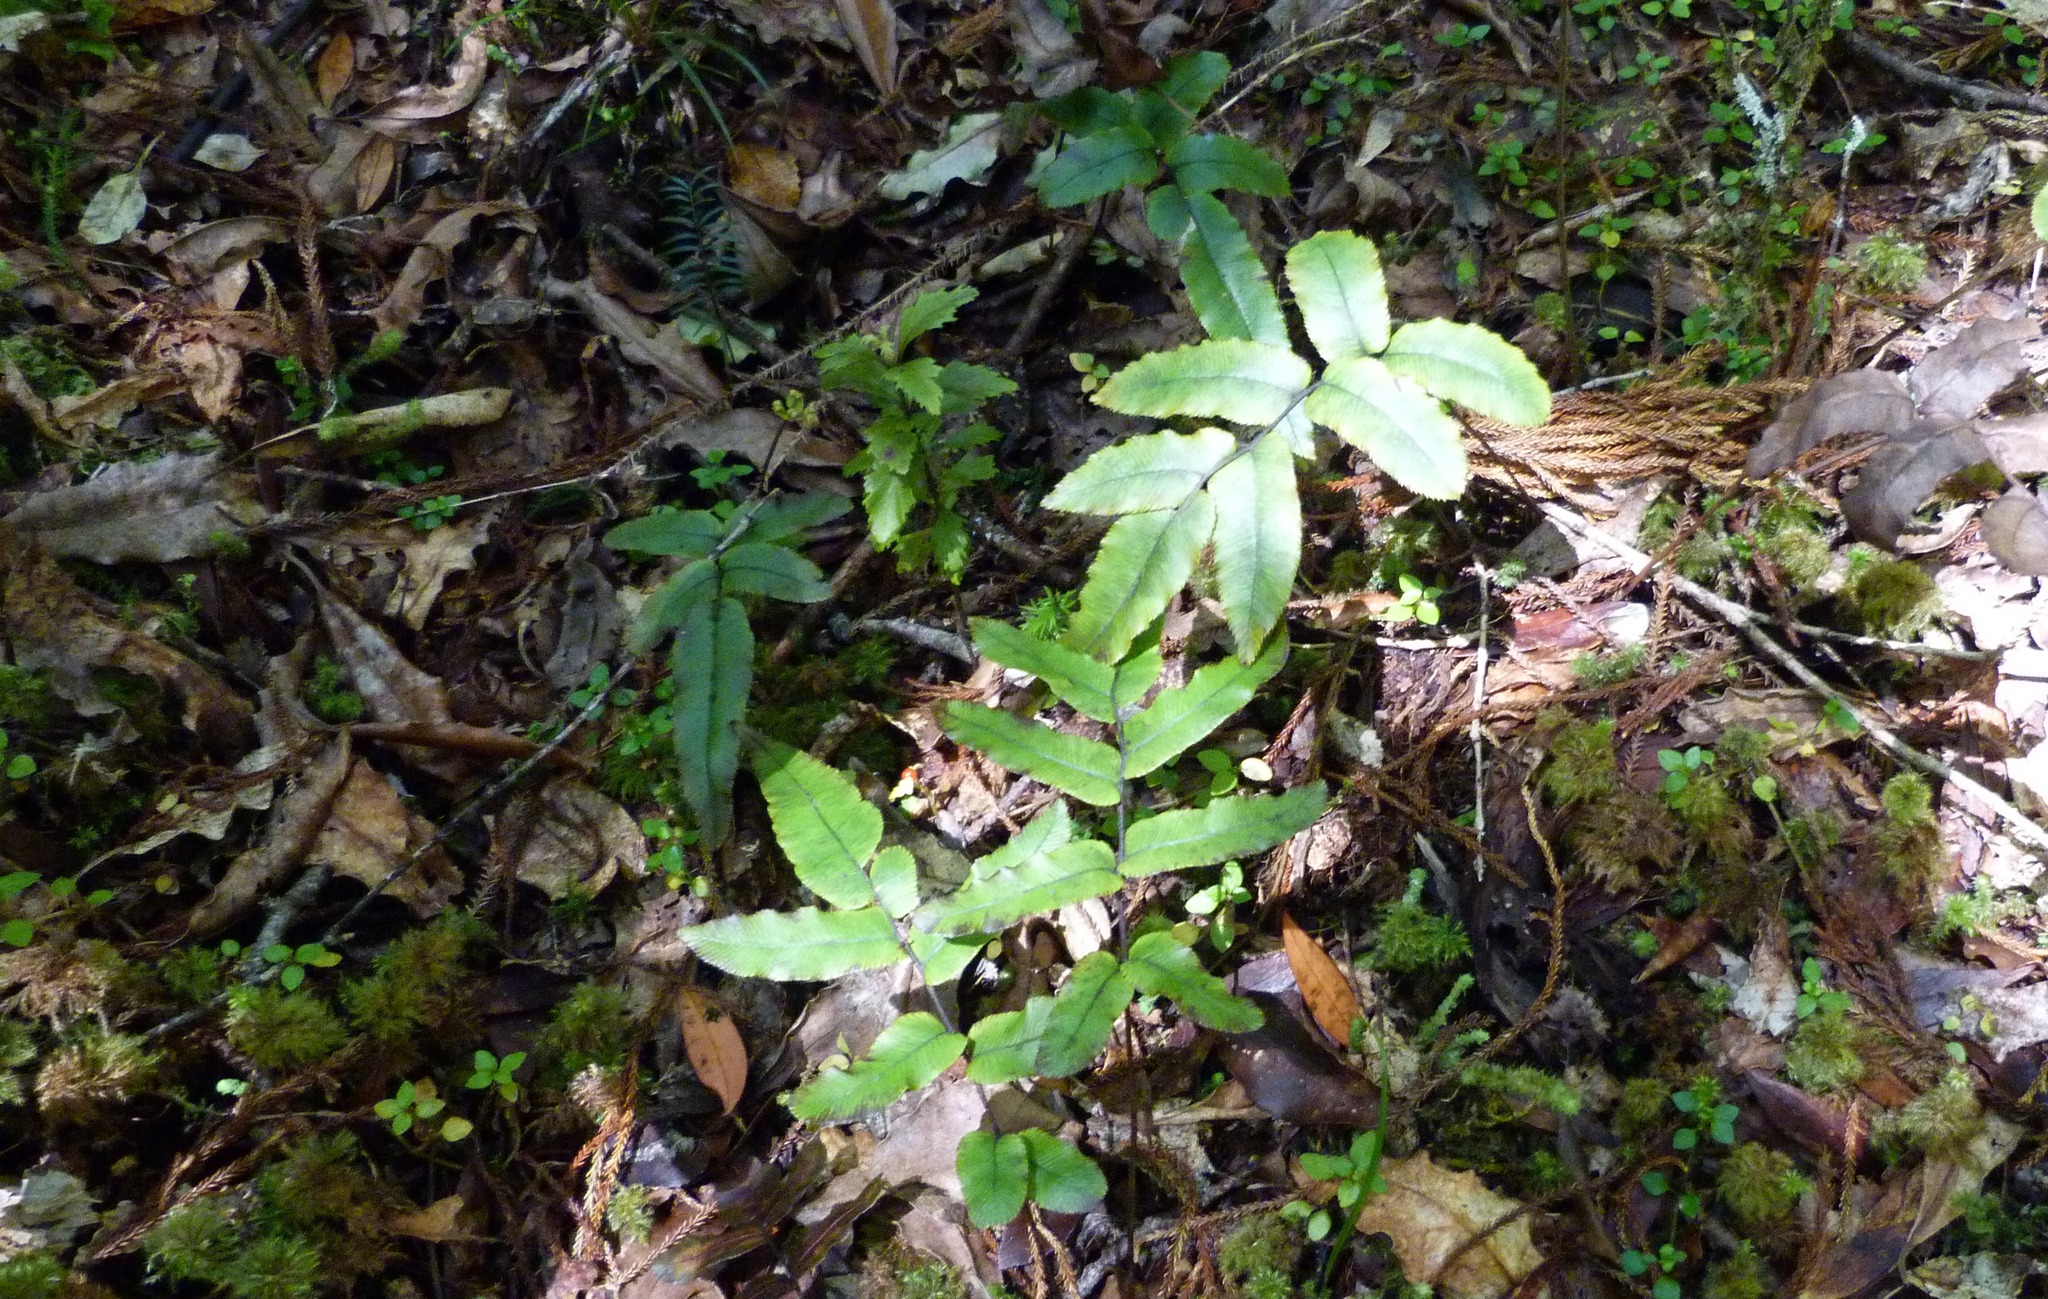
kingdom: Plantae
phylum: Tracheophyta
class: Polypodiopsida
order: Polypodiales
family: Blechnaceae
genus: Parablechnum
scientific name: Parablechnum procerum
